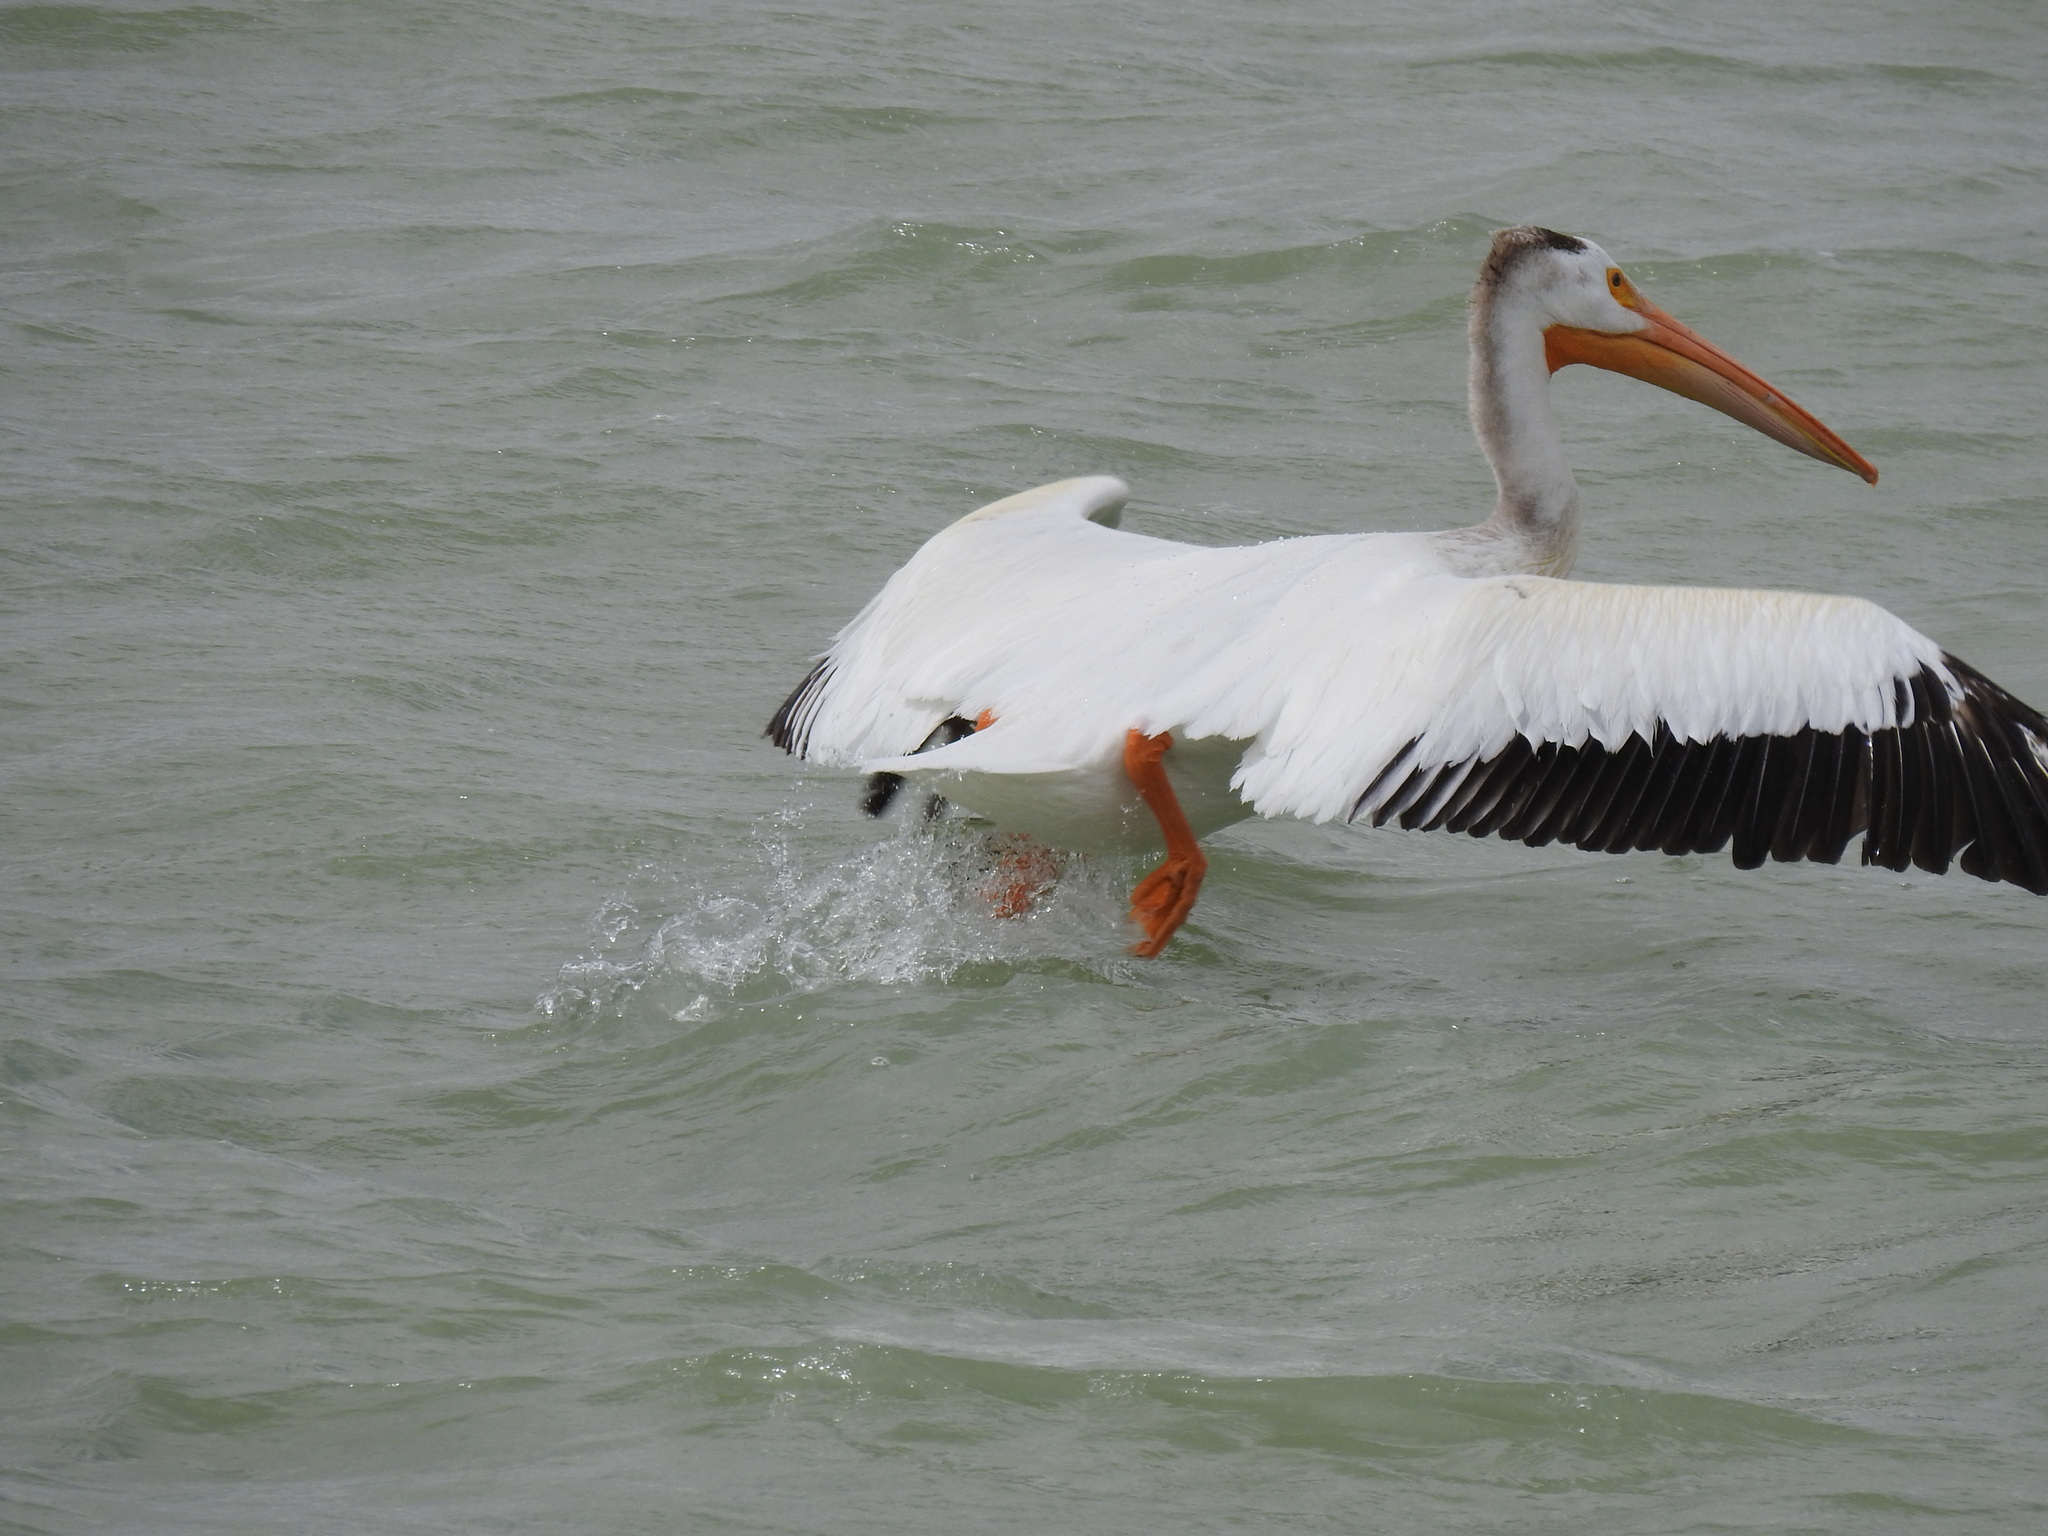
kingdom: Animalia
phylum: Chordata
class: Aves
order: Pelecaniformes
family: Pelecanidae
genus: Pelecanus
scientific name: Pelecanus erythrorhynchos
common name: American white pelican
